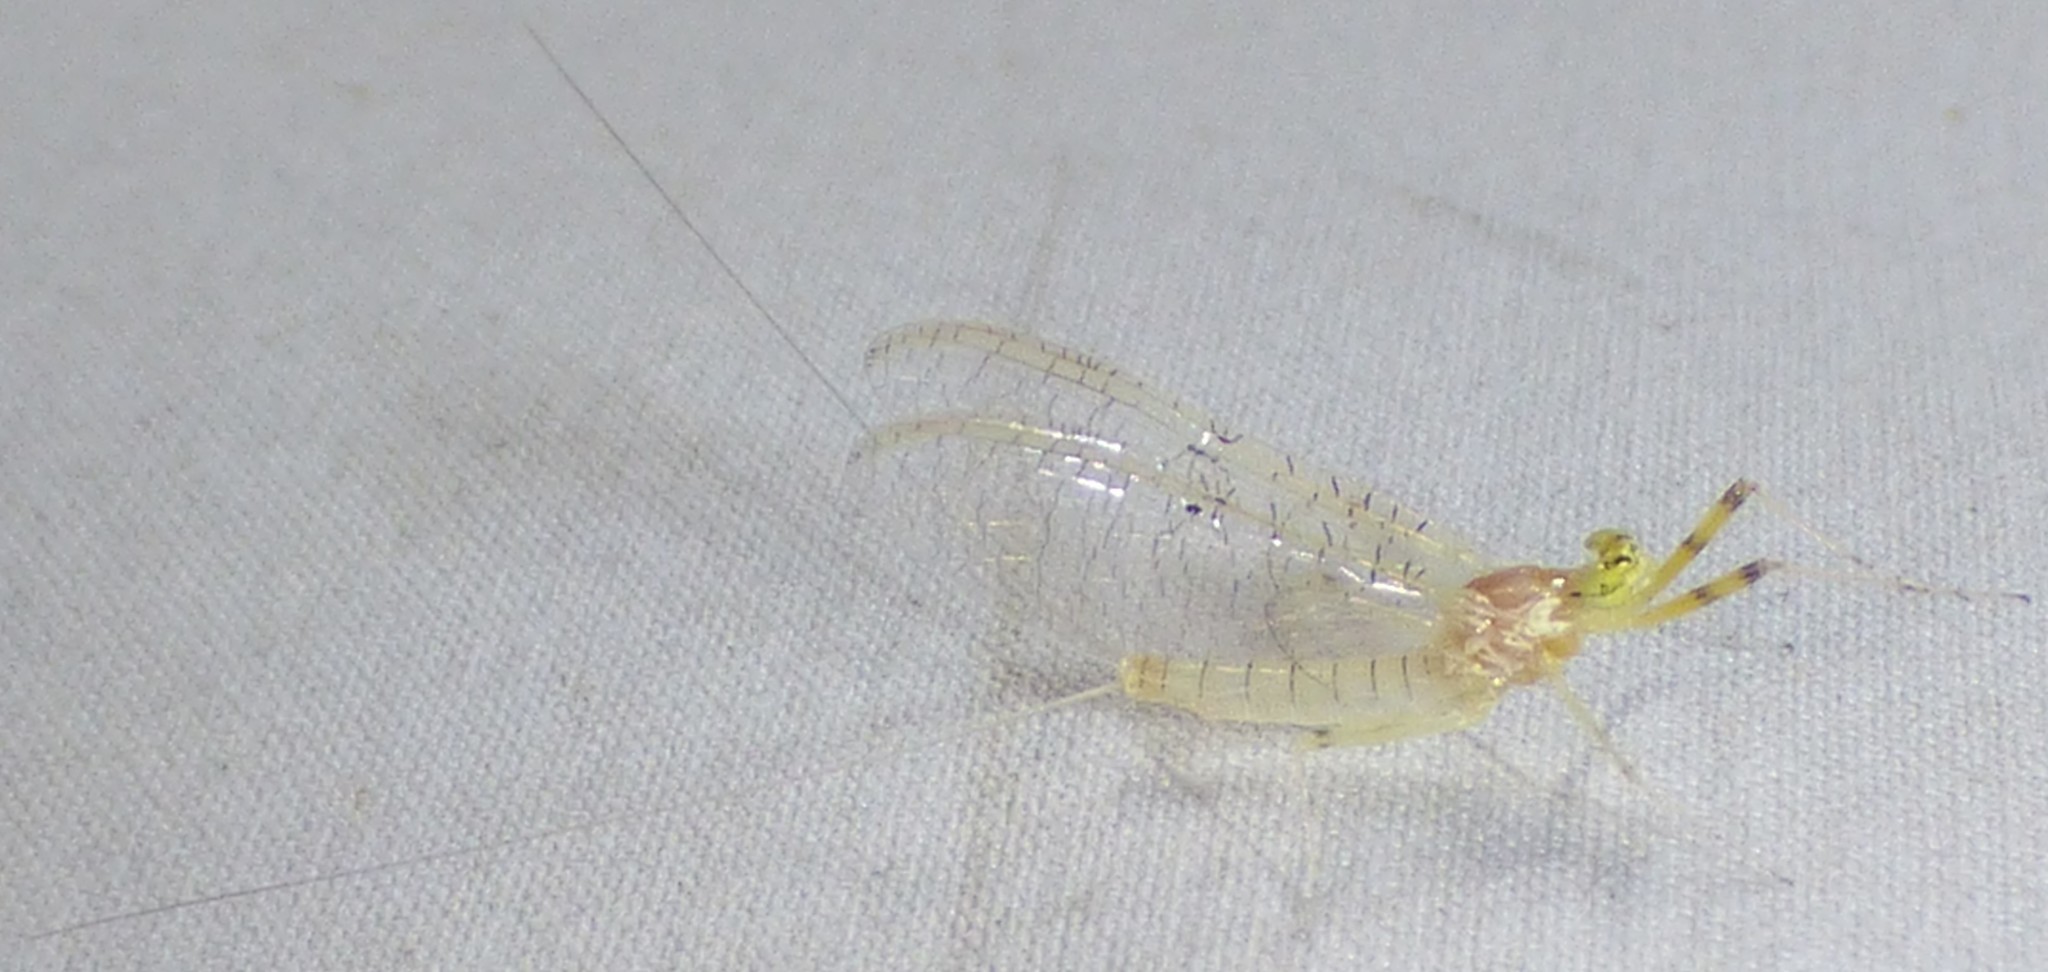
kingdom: Animalia
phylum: Arthropoda
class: Insecta
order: Ephemeroptera
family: Heptageniidae
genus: Stenacron
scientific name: Stenacron interpunctatum
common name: Orange cahill
